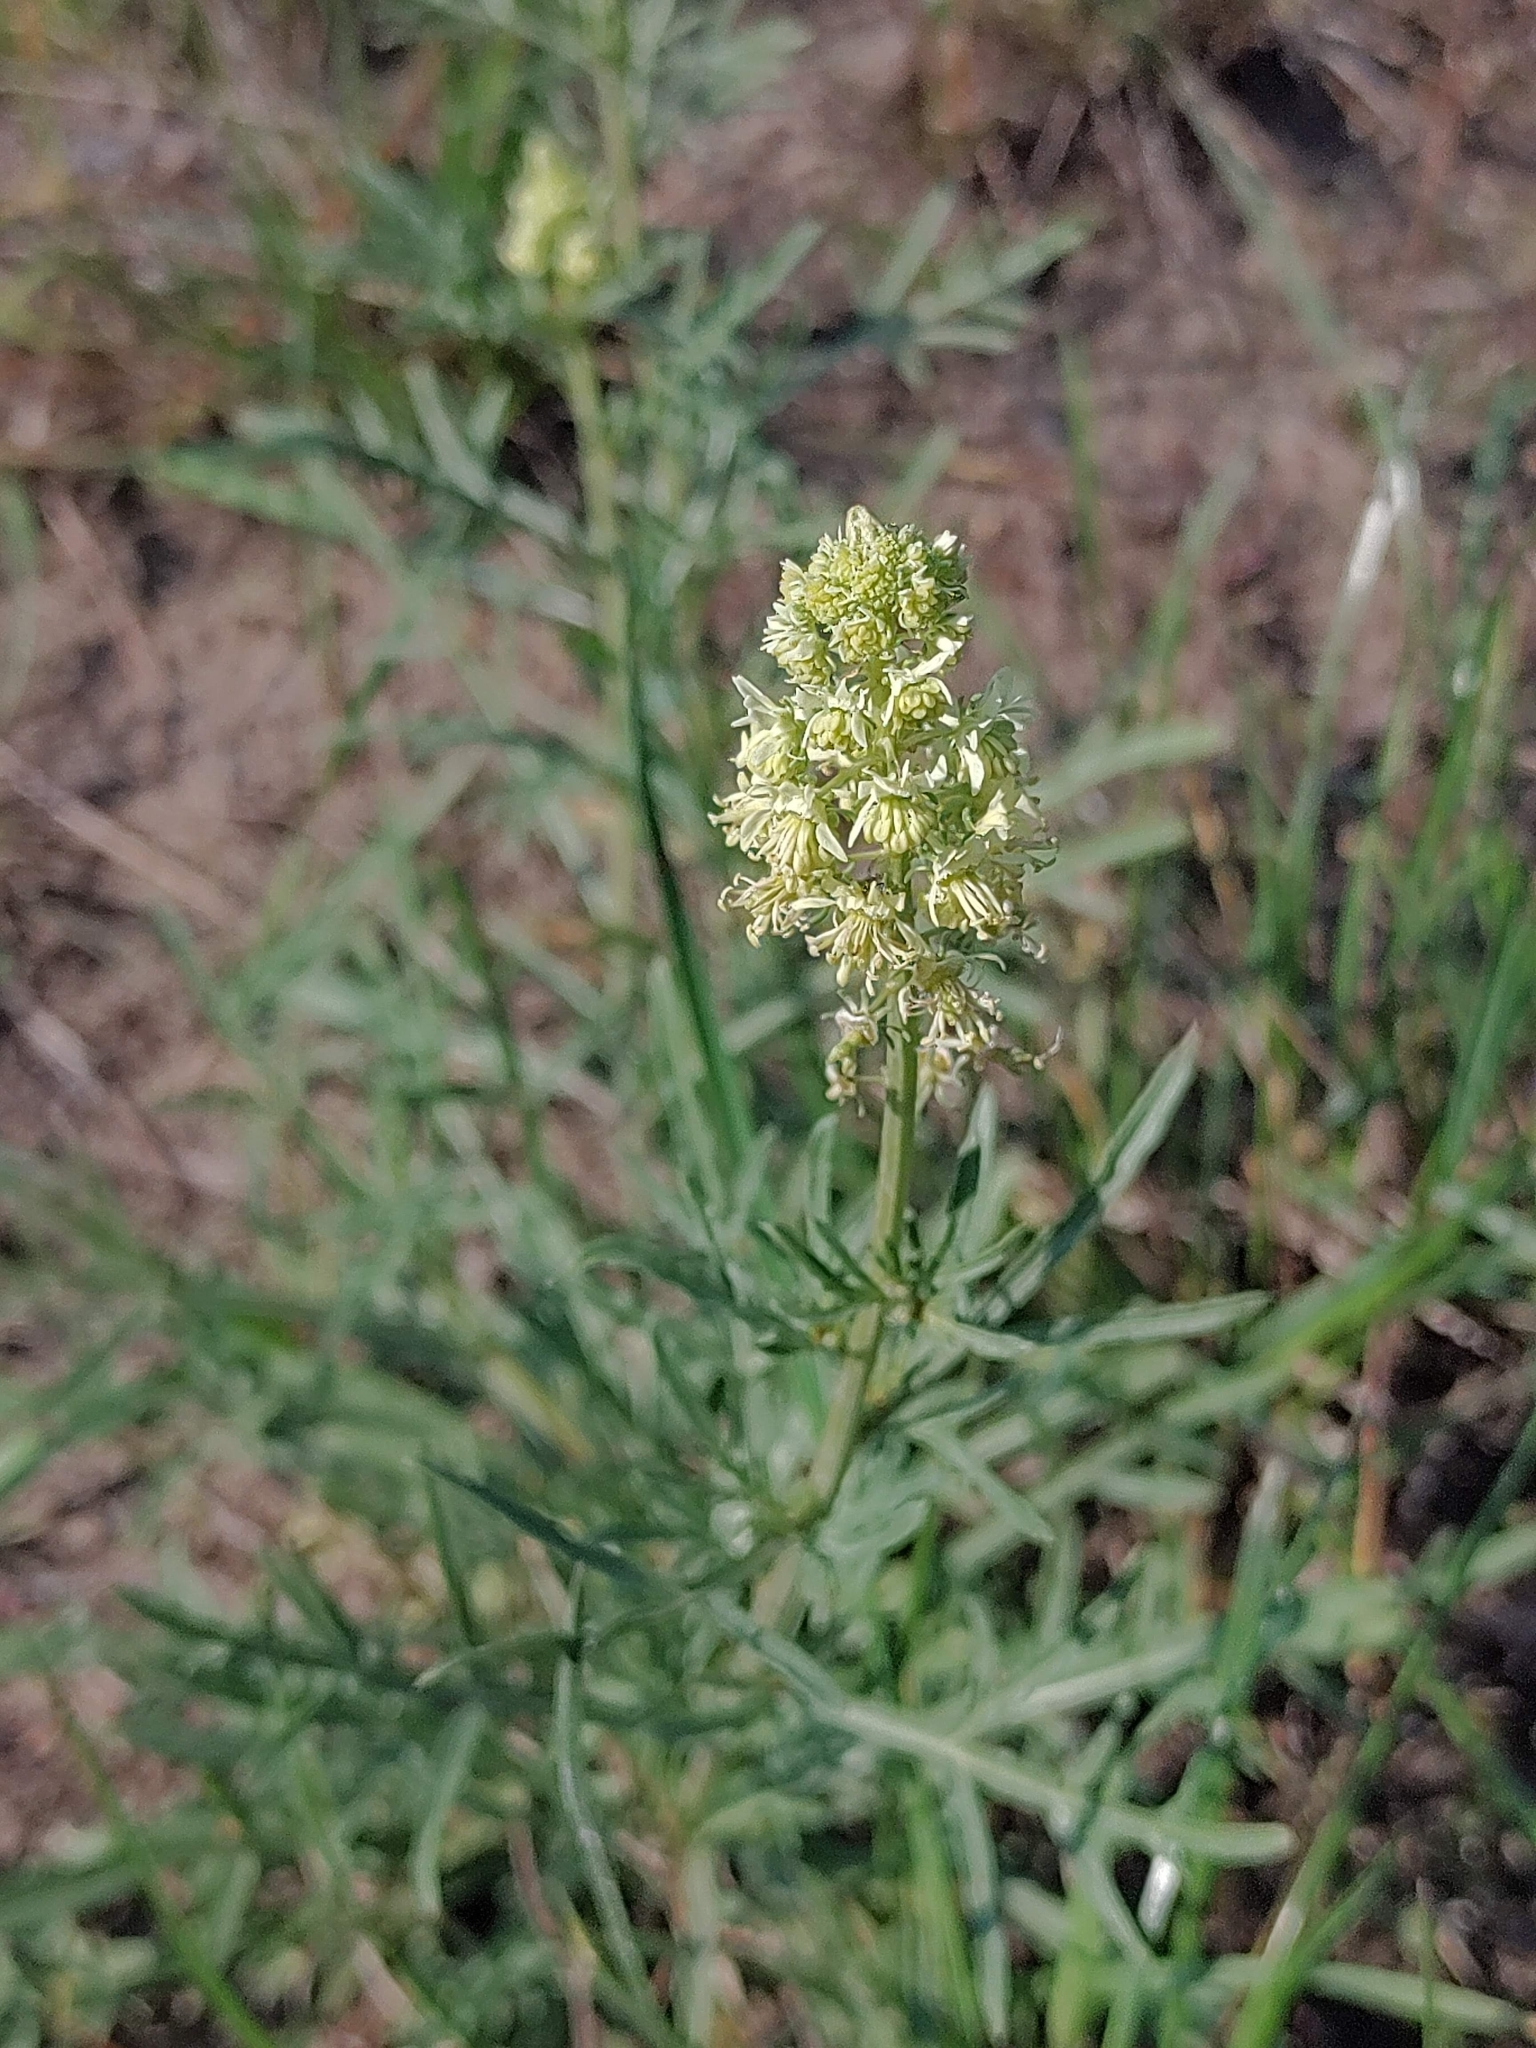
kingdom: Plantae
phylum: Tracheophyta
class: Magnoliopsida
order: Brassicales
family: Resedaceae
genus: Reseda
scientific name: Reseda lutea
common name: Wild mignonette
